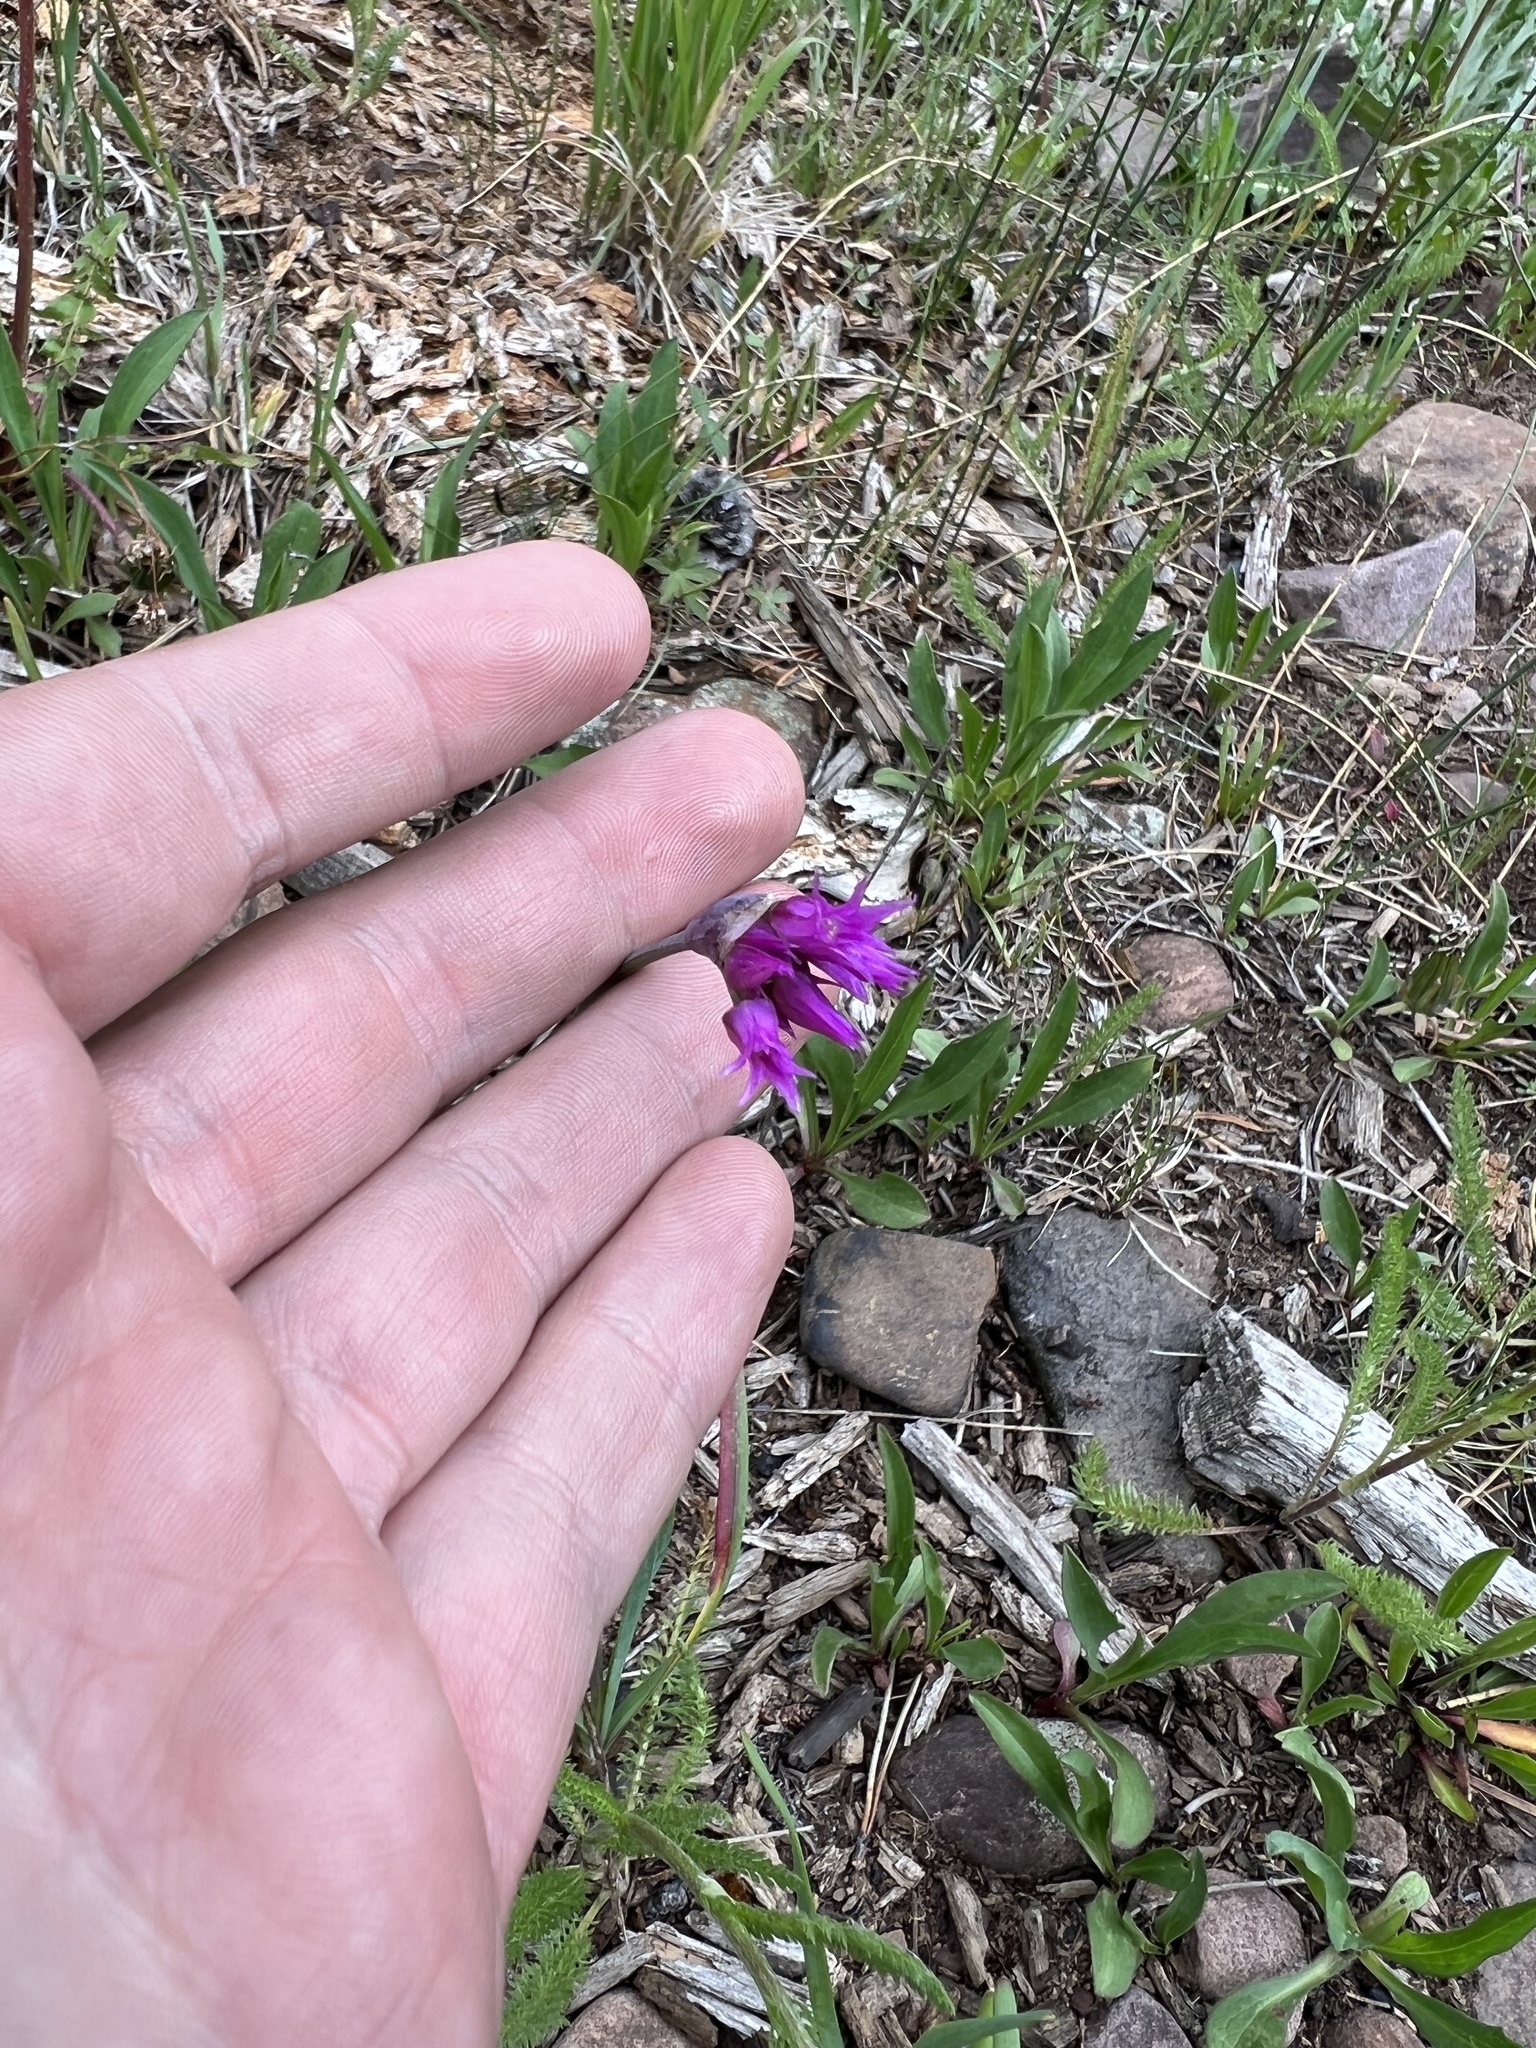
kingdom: Plantae
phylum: Tracheophyta
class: Liliopsida
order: Asparagales
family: Amaryllidaceae
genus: Allium
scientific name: Allium brevistylum
